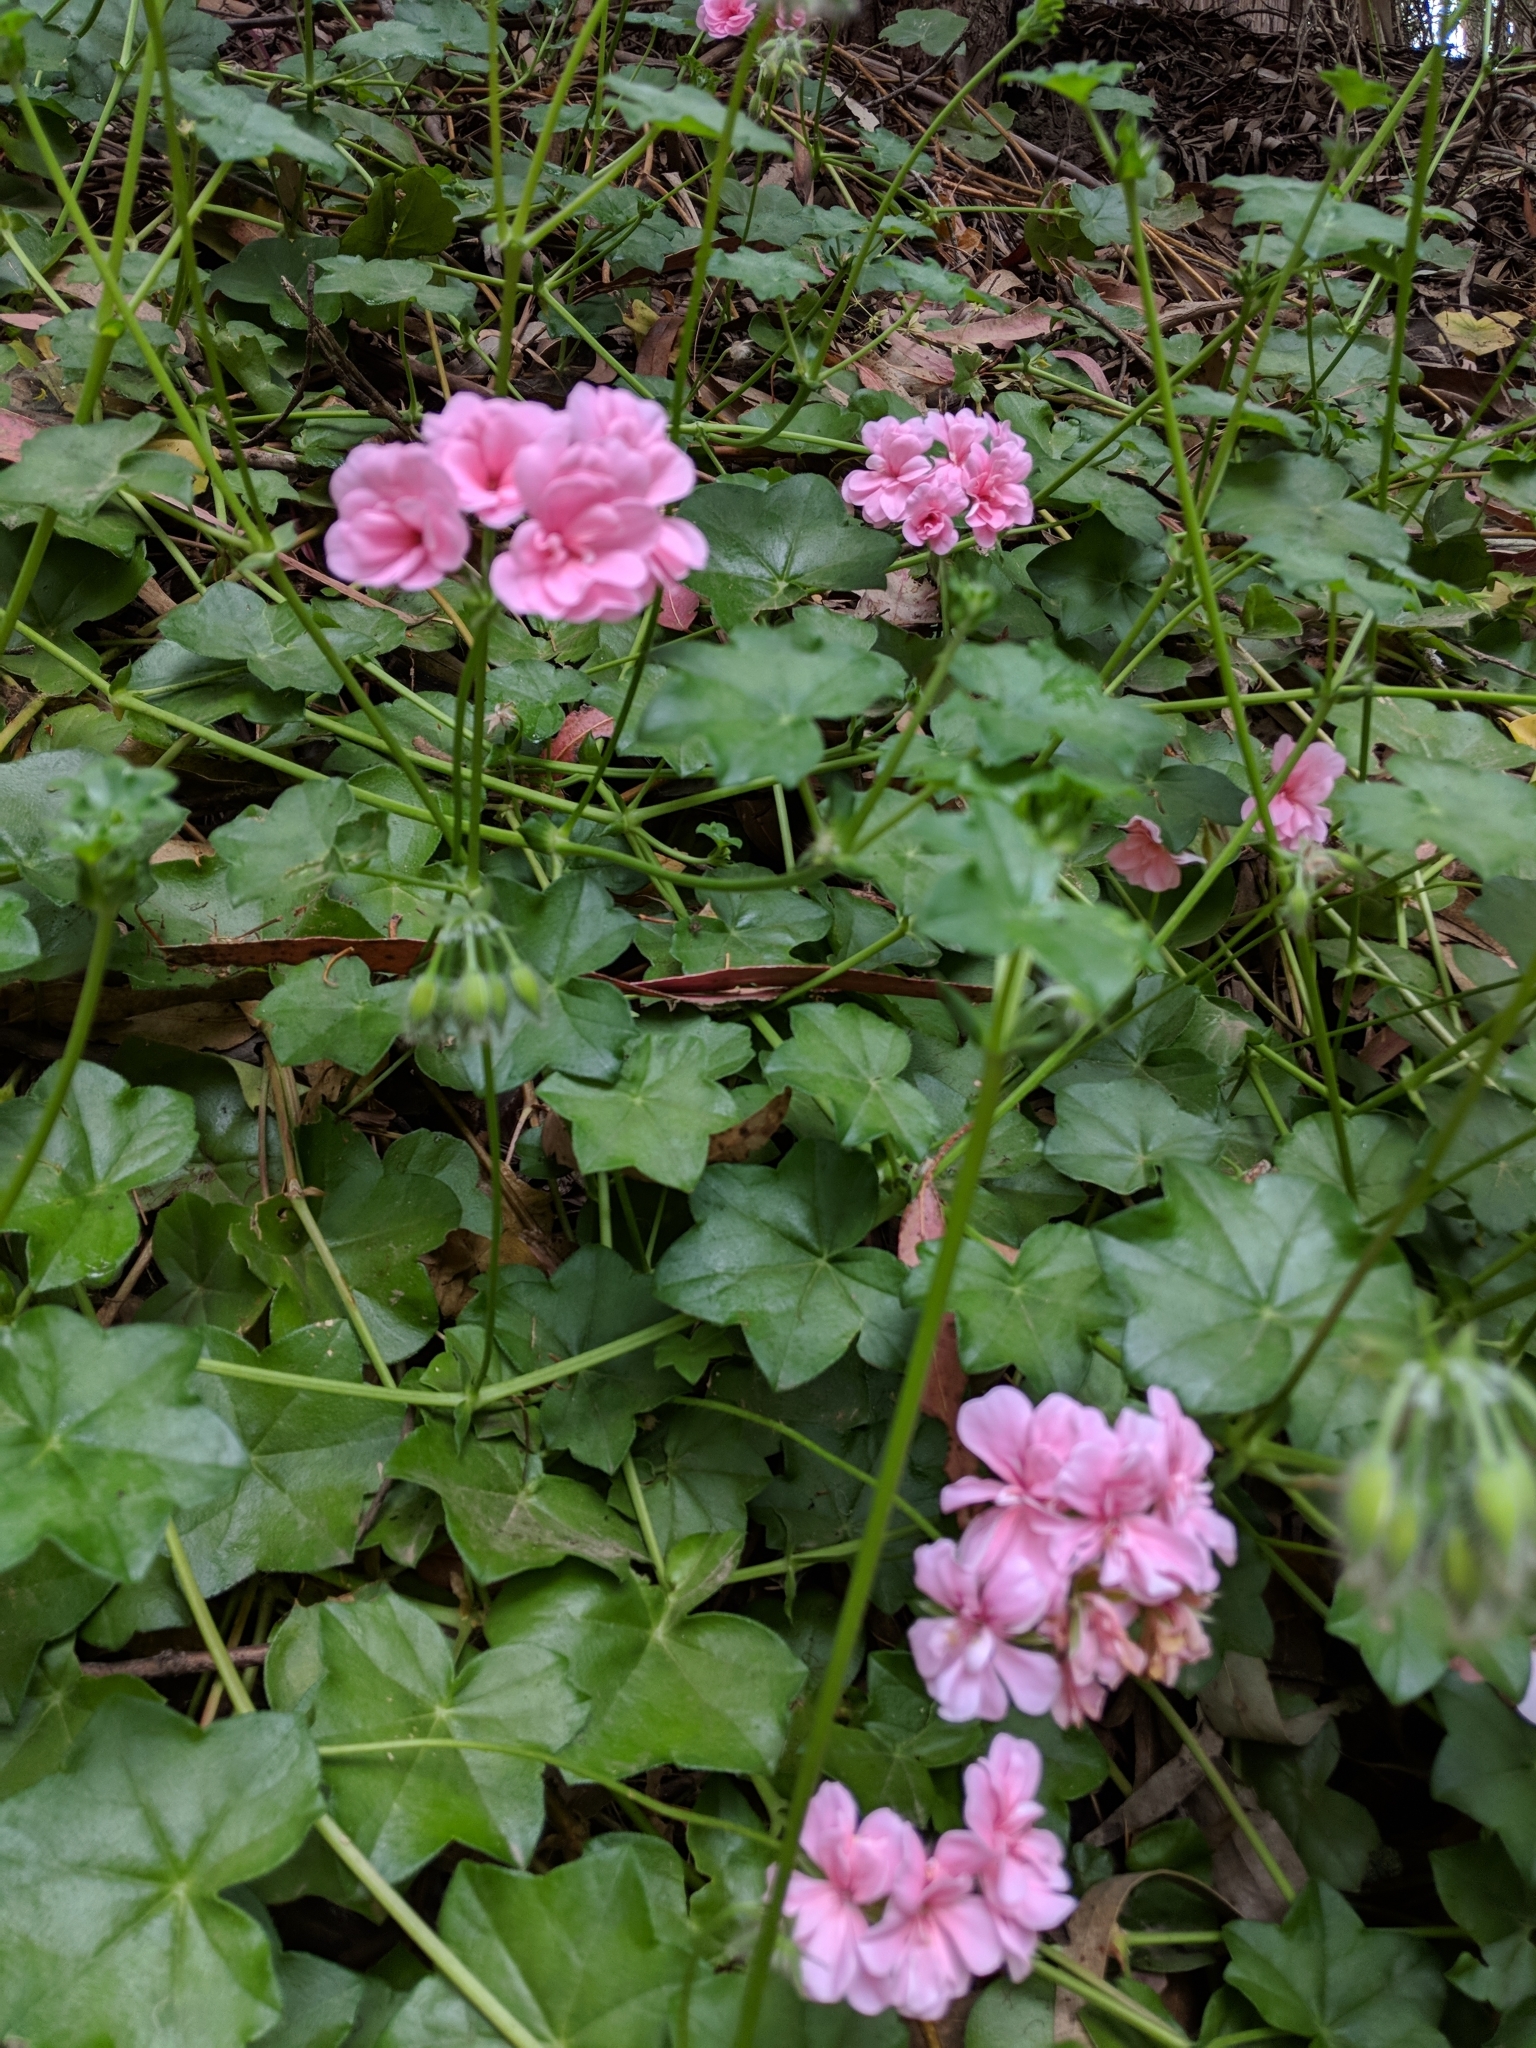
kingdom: Plantae
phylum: Tracheophyta
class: Magnoliopsida
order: Geraniales
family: Geraniaceae
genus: Pelargonium
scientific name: Pelargonium peltatum
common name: Ivyleaf geranium
